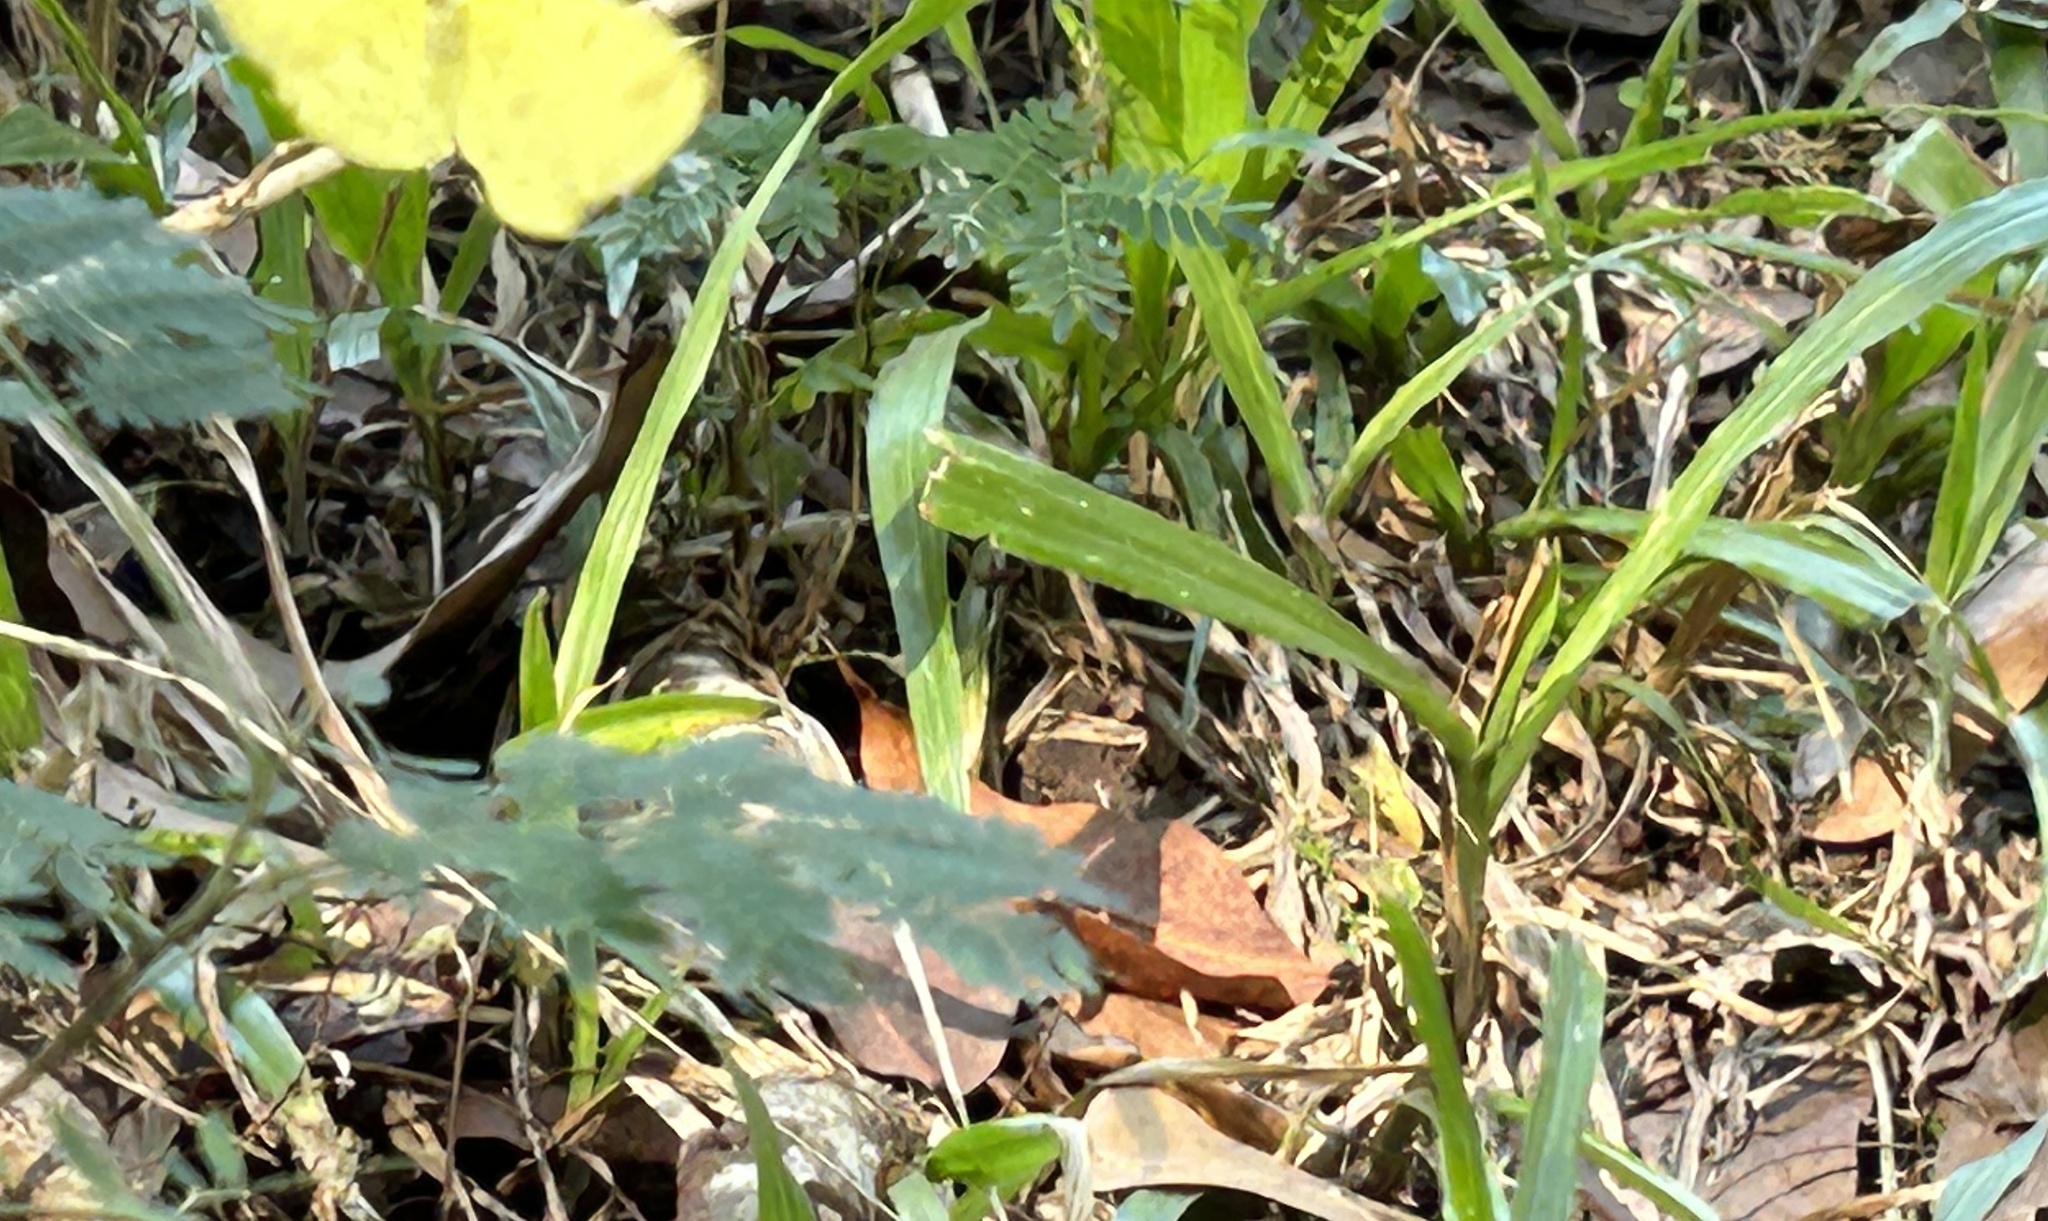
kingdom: Animalia
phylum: Arthropoda
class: Insecta
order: Lepidoptera
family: Pieridae
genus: Eurema
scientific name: Eurema hecabe
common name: Pale grass yellow
